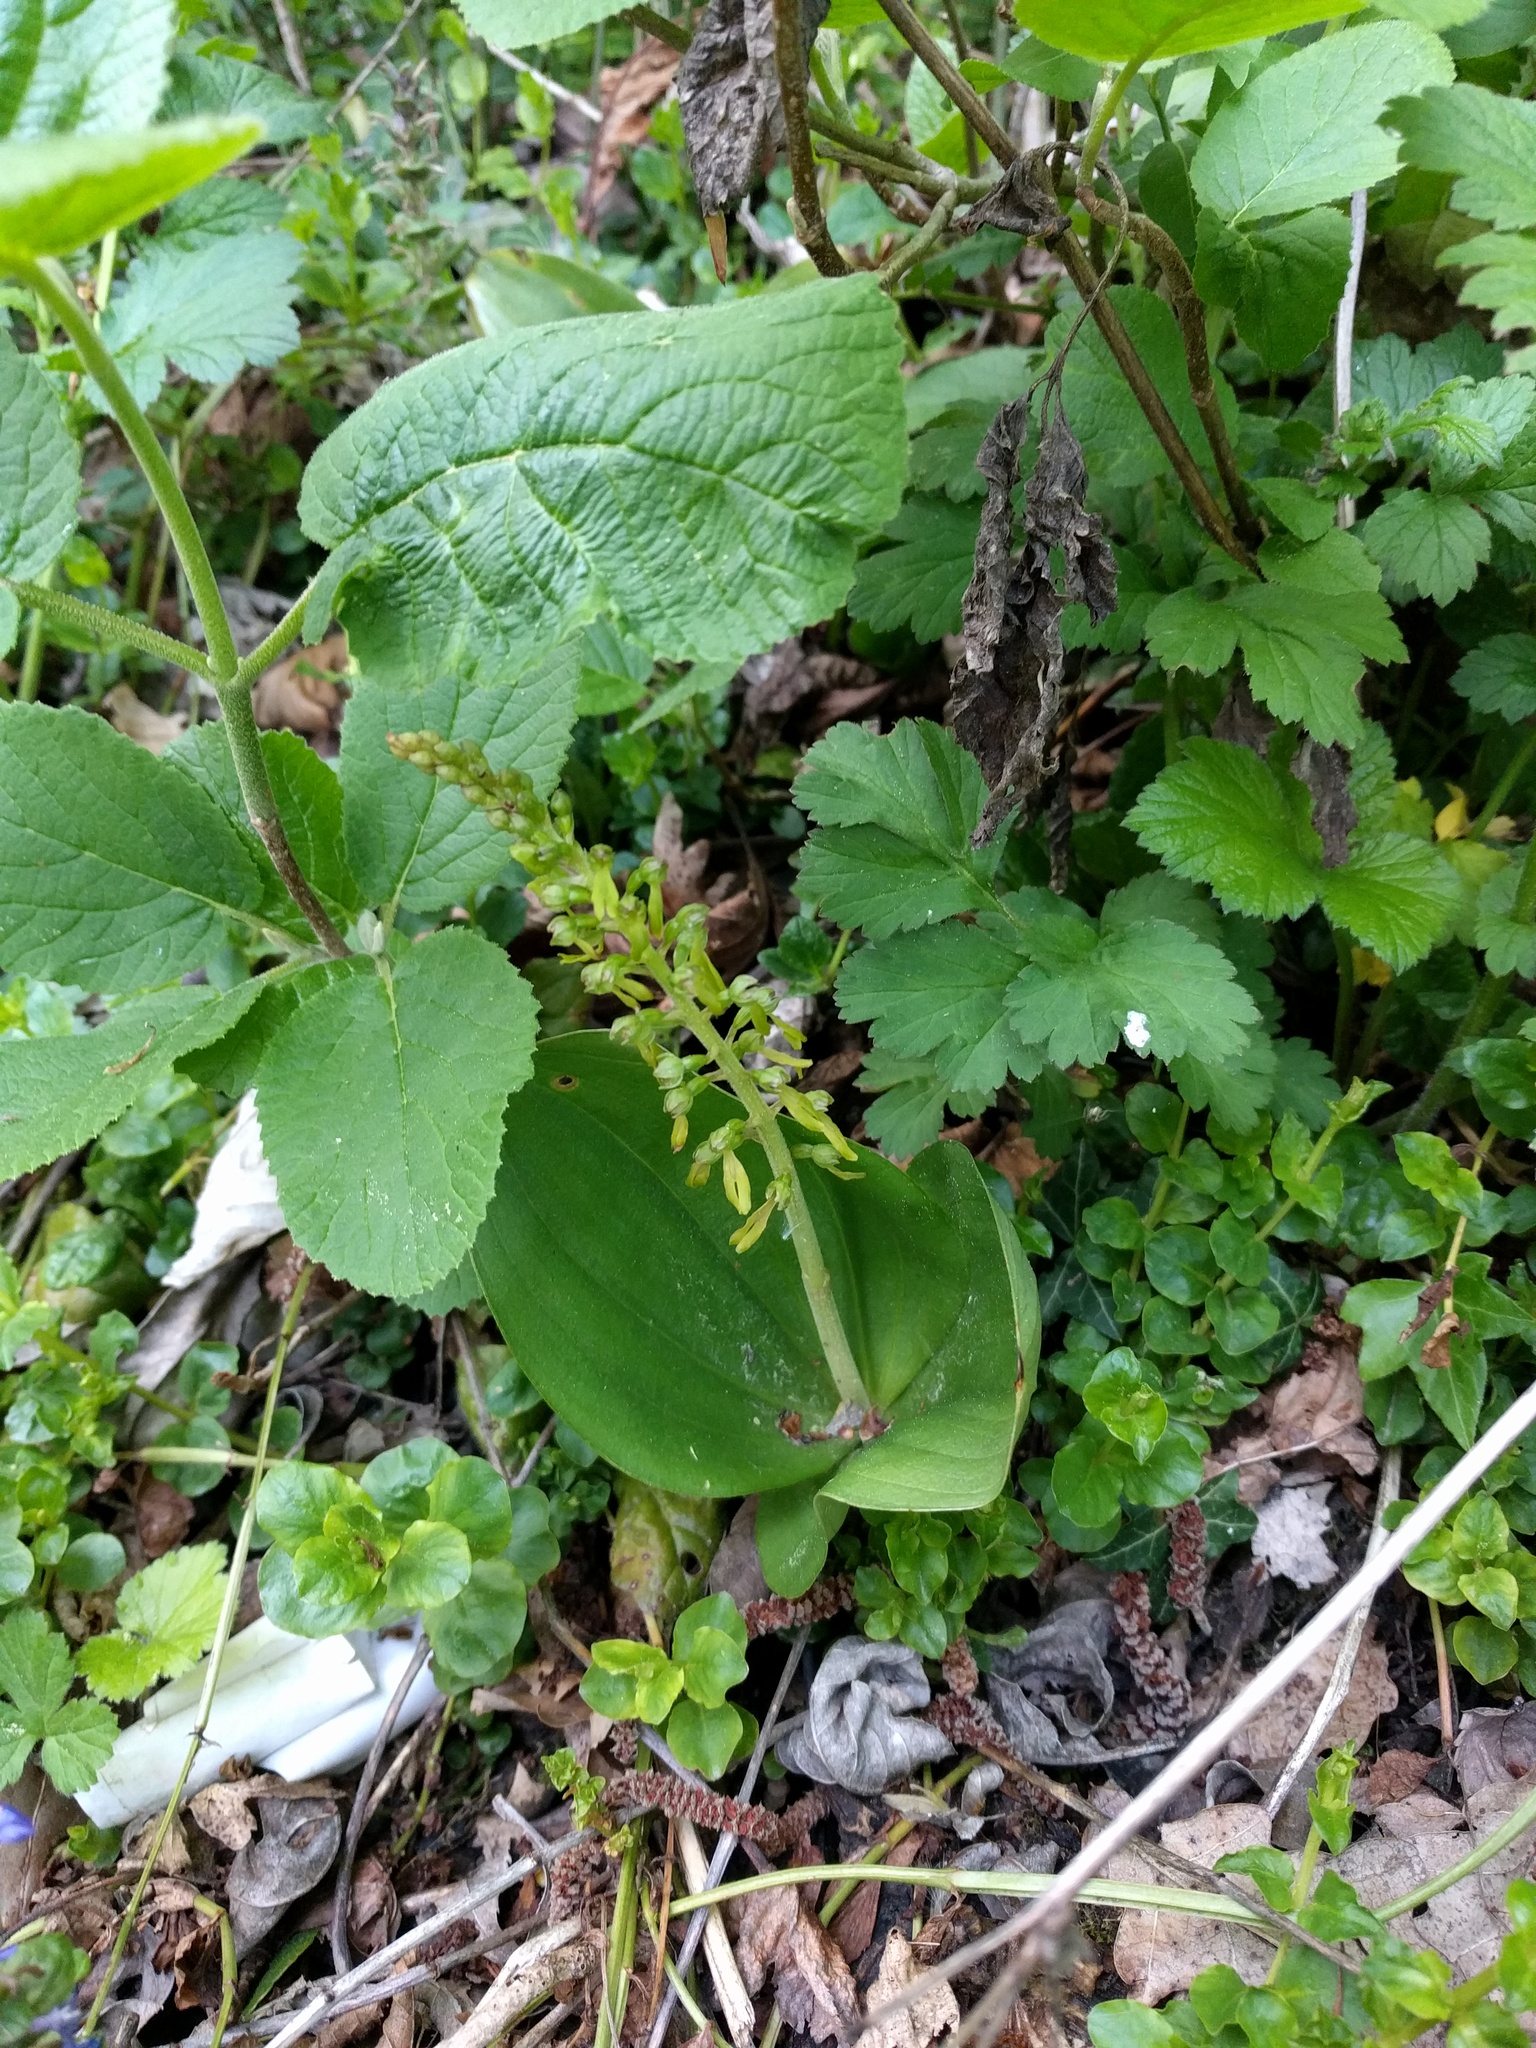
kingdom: Plantae
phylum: Tracheophyta
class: Liliopsida
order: Asparagales
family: Orchidaceae
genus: Neottia
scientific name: Neottia ovata
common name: Common twayblade
